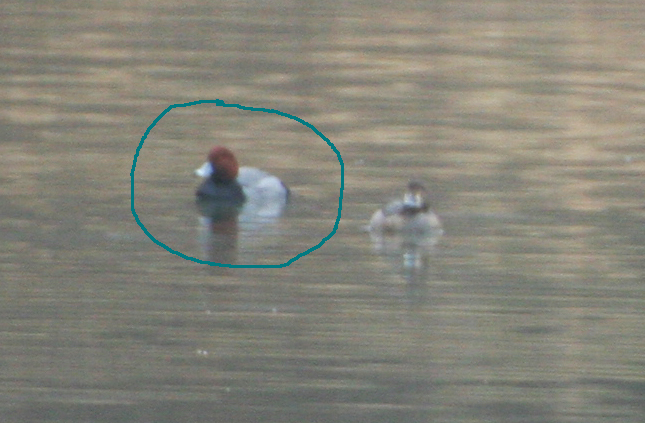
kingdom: Animalia
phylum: Chordata
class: Aves
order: Anseriformes
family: Anatidae
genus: Aythya
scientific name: Aythya americana
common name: Redhead
